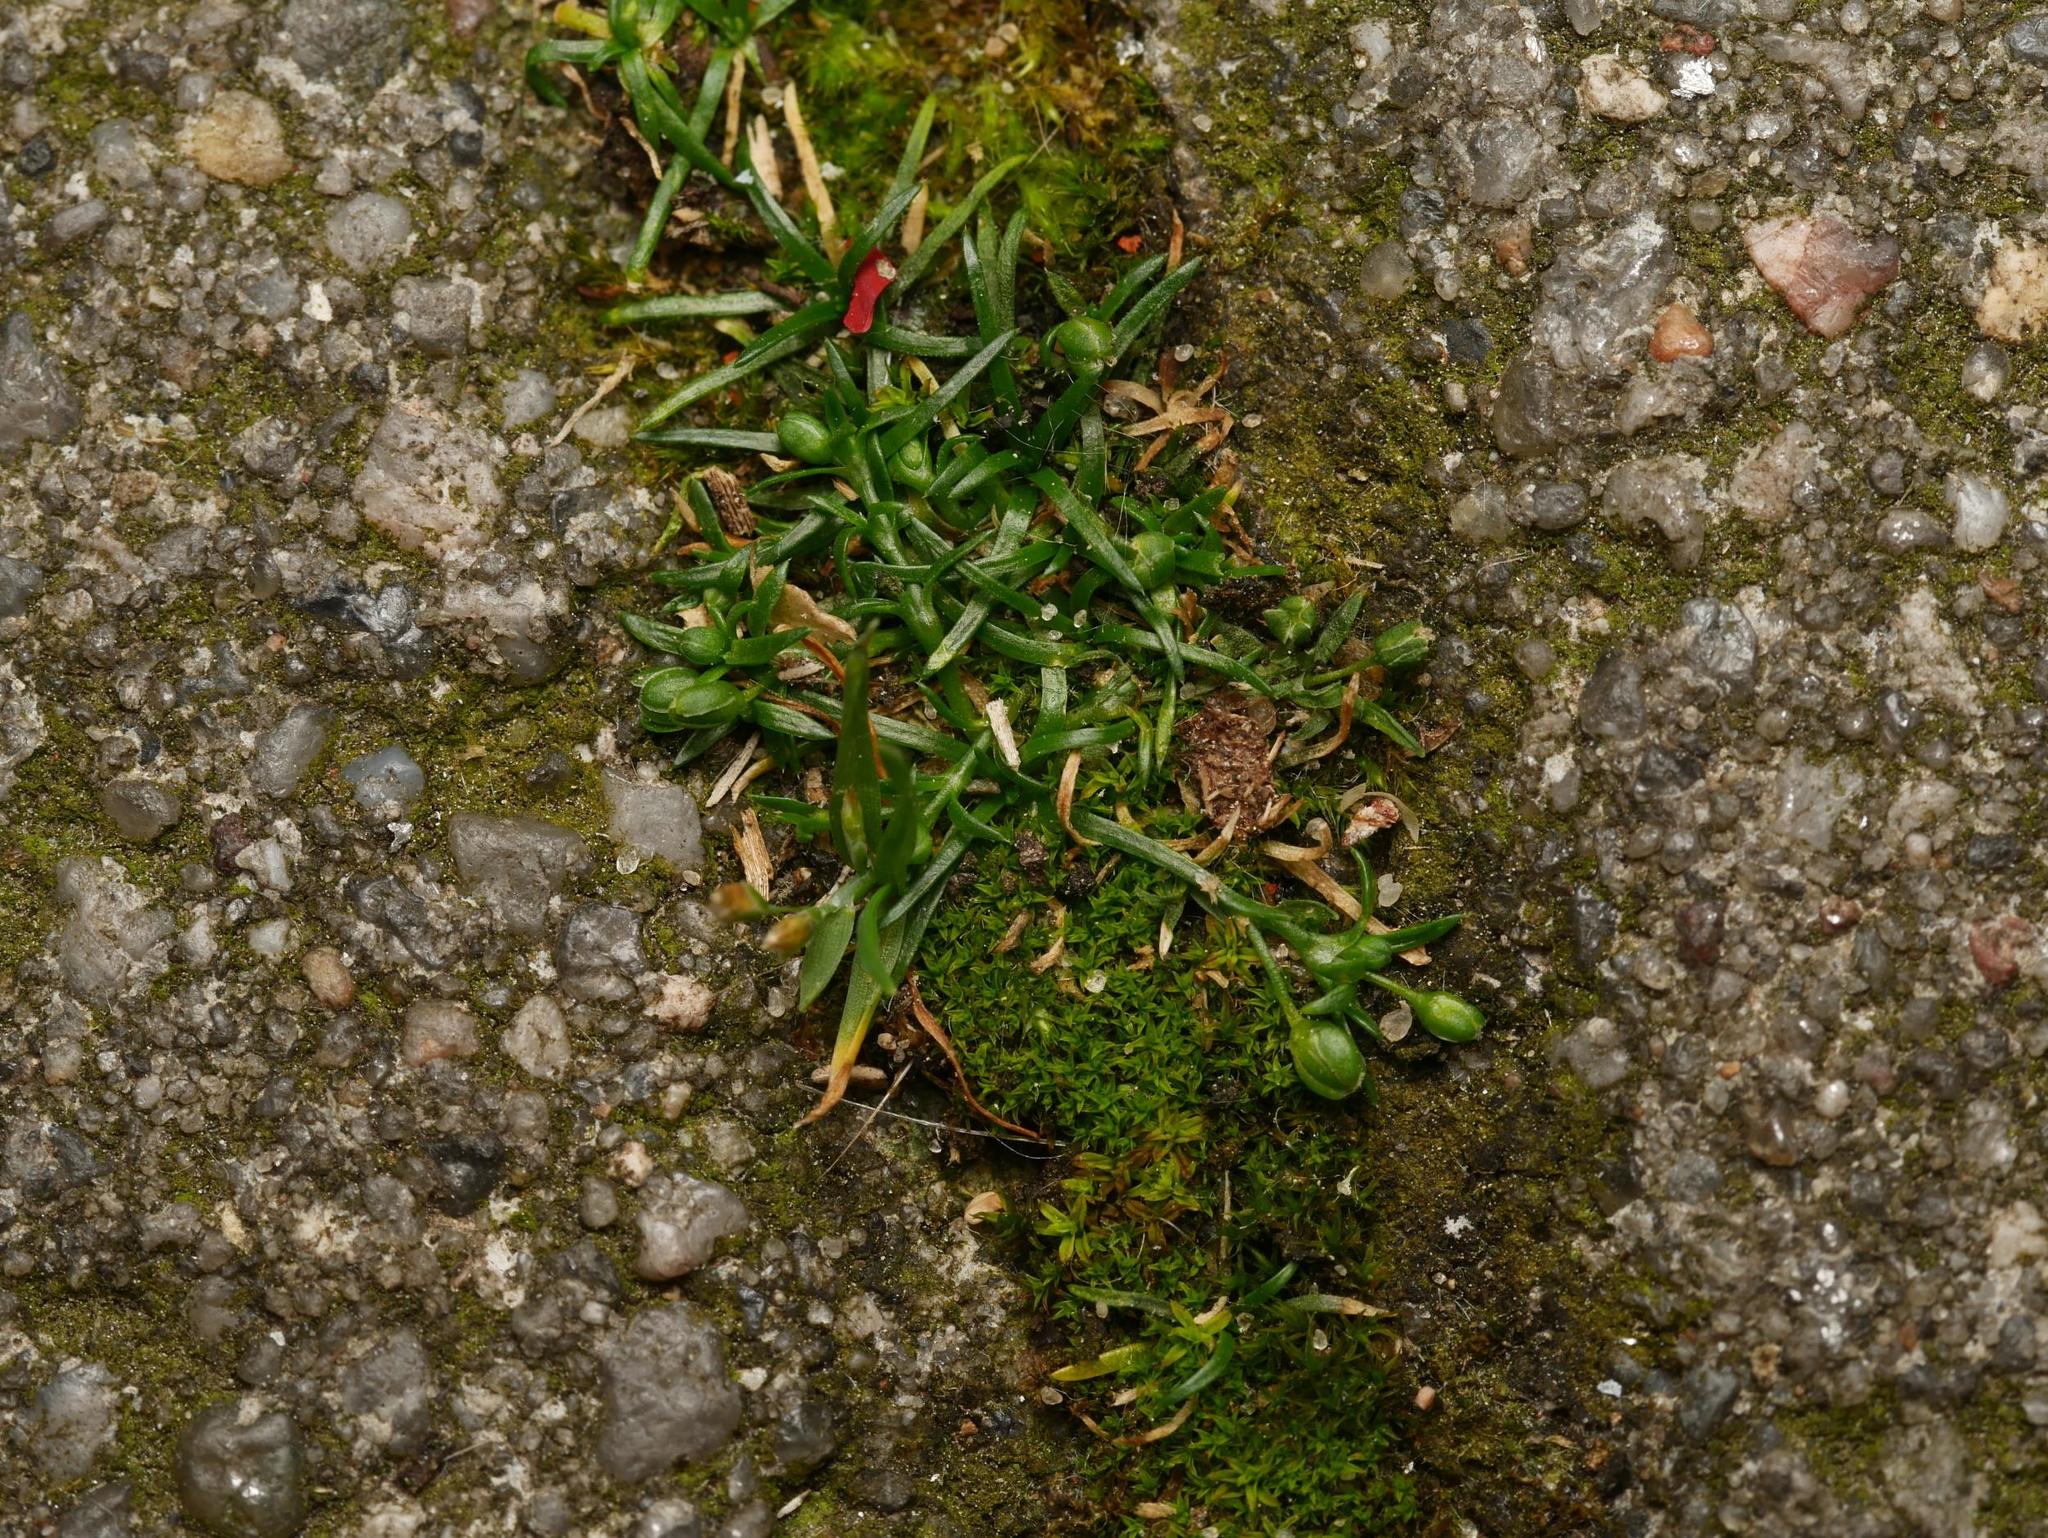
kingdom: Plantae
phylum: Tracheophyta
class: Magnoliopsida
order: Caryophyllales
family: Caryophyllaceae
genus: Sagina
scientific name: Sagina procumbens
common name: Procumbent pearlwort
